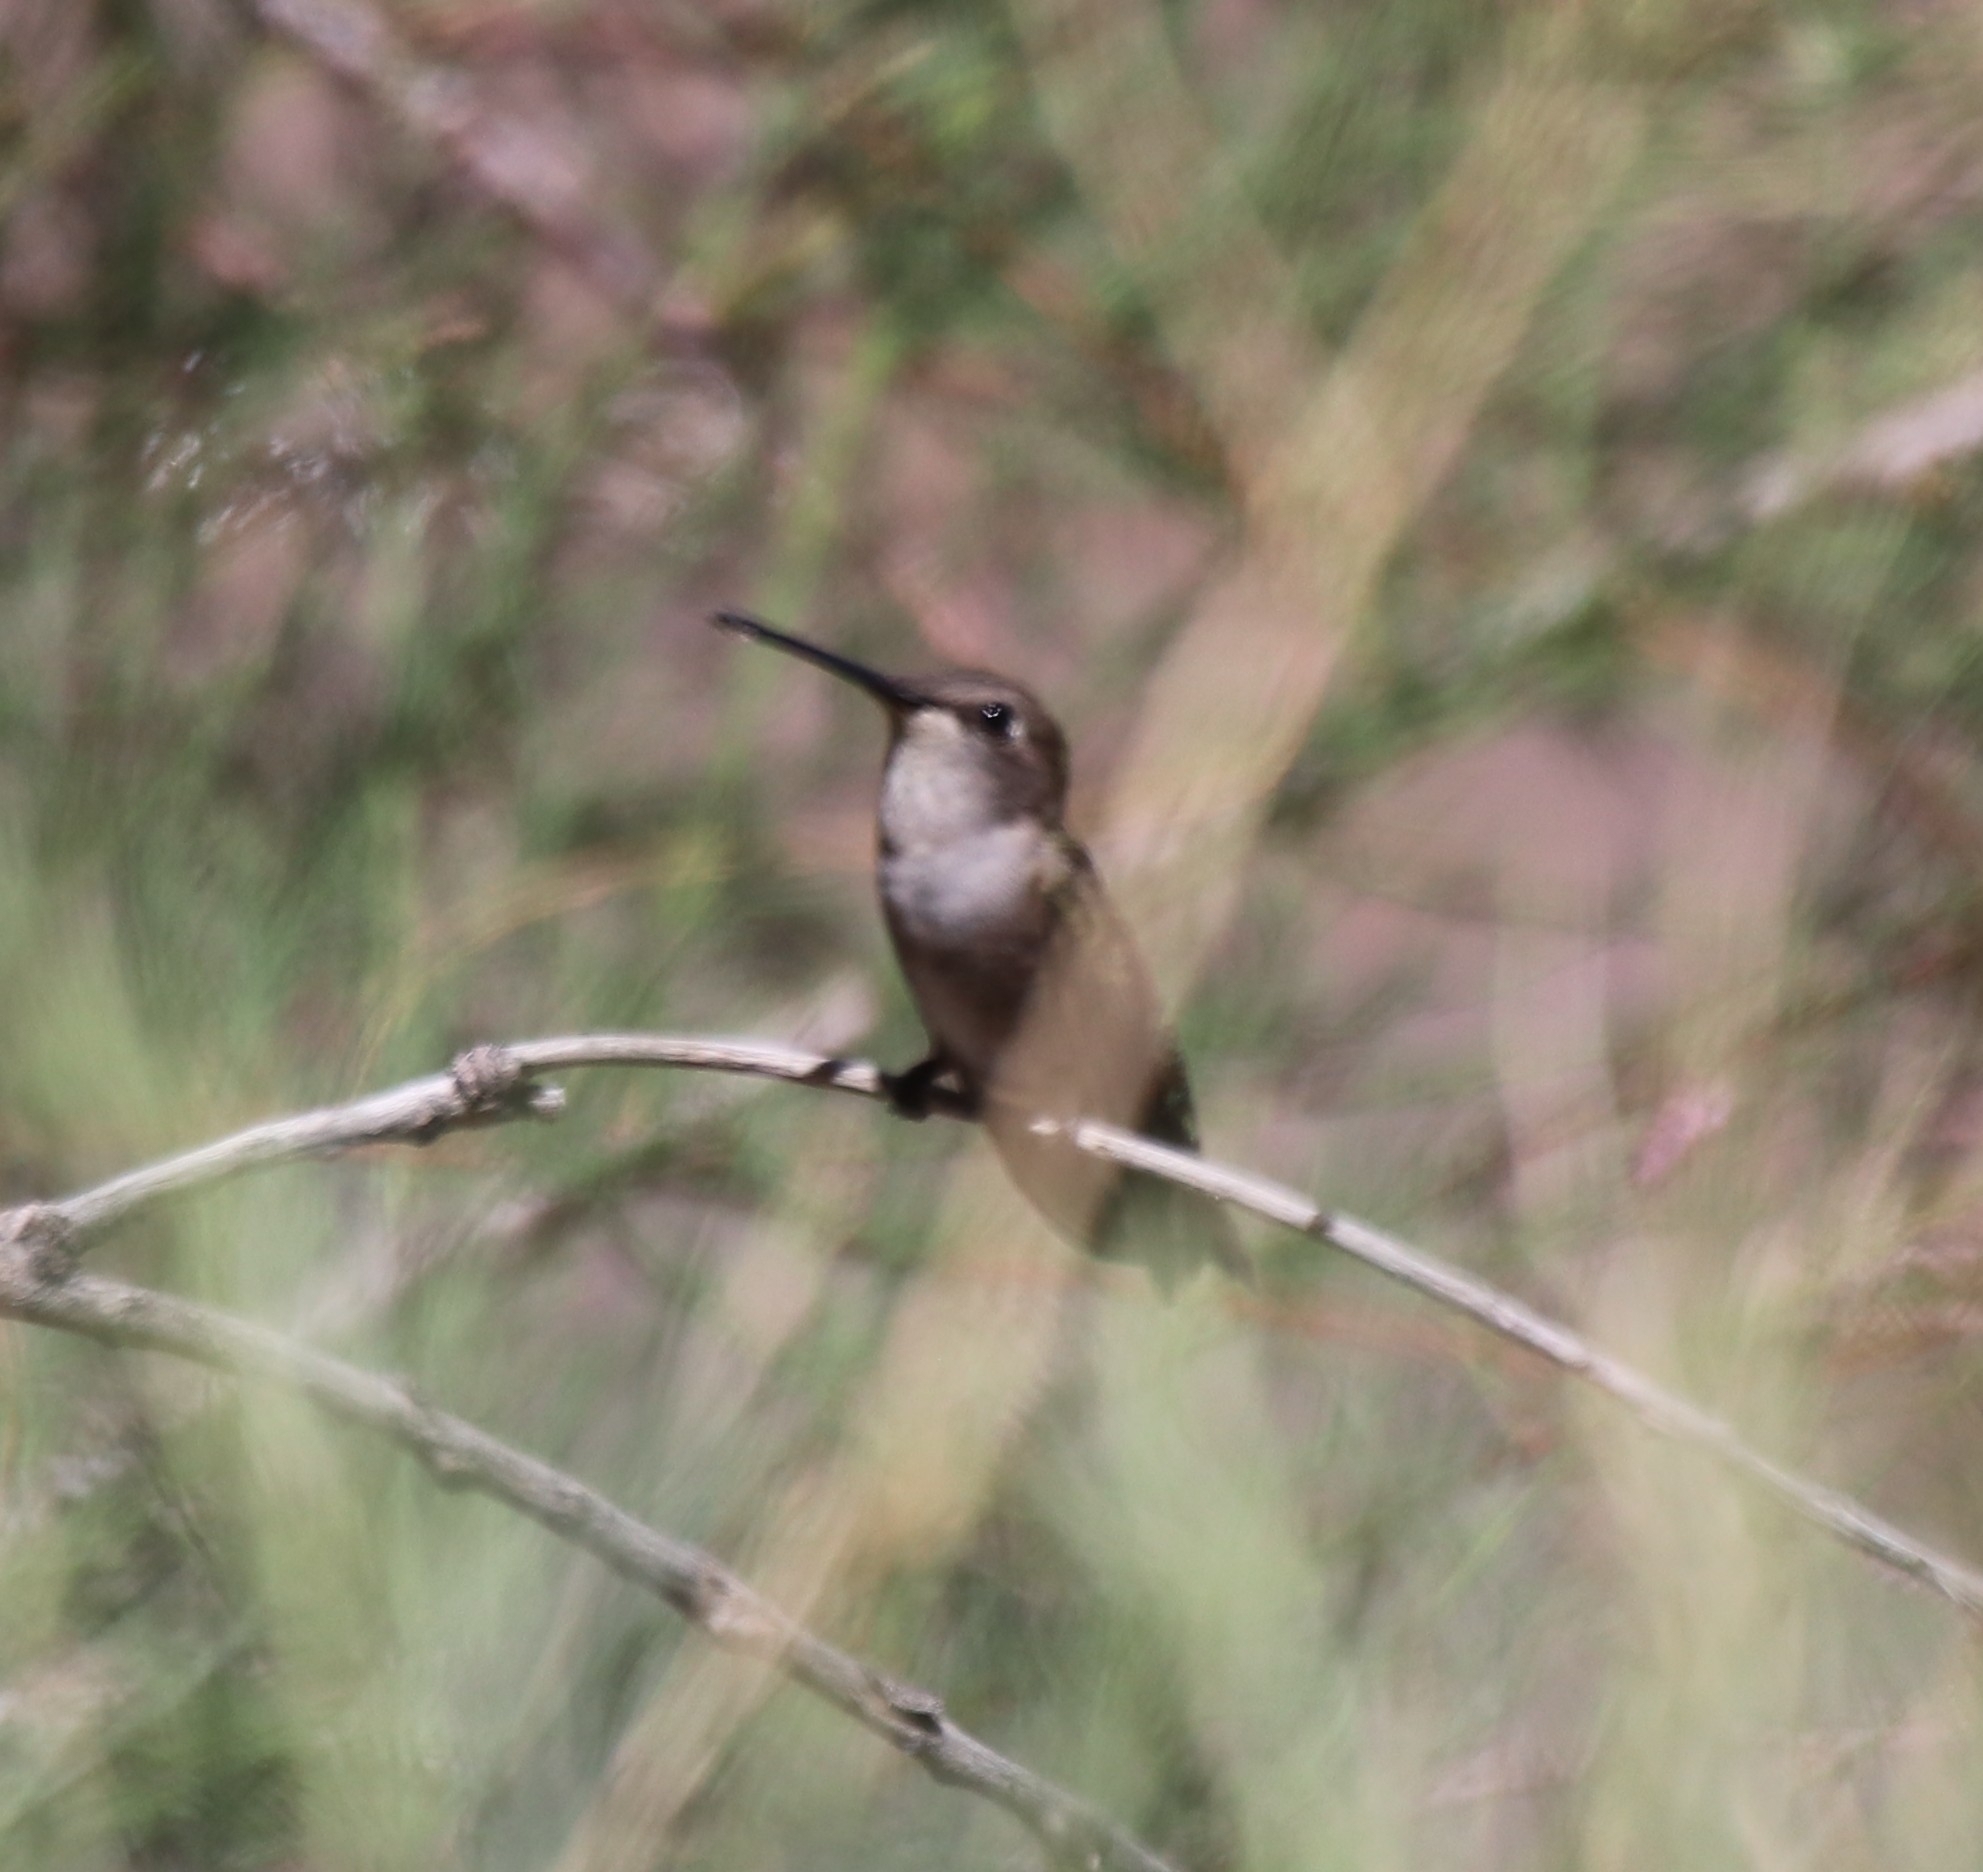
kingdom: Animalia
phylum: Chordata
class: Aves
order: Apodiformes
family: Trochilidae
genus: Archilochus
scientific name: Archilochus alexandri
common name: Black-chinned hummingbird
